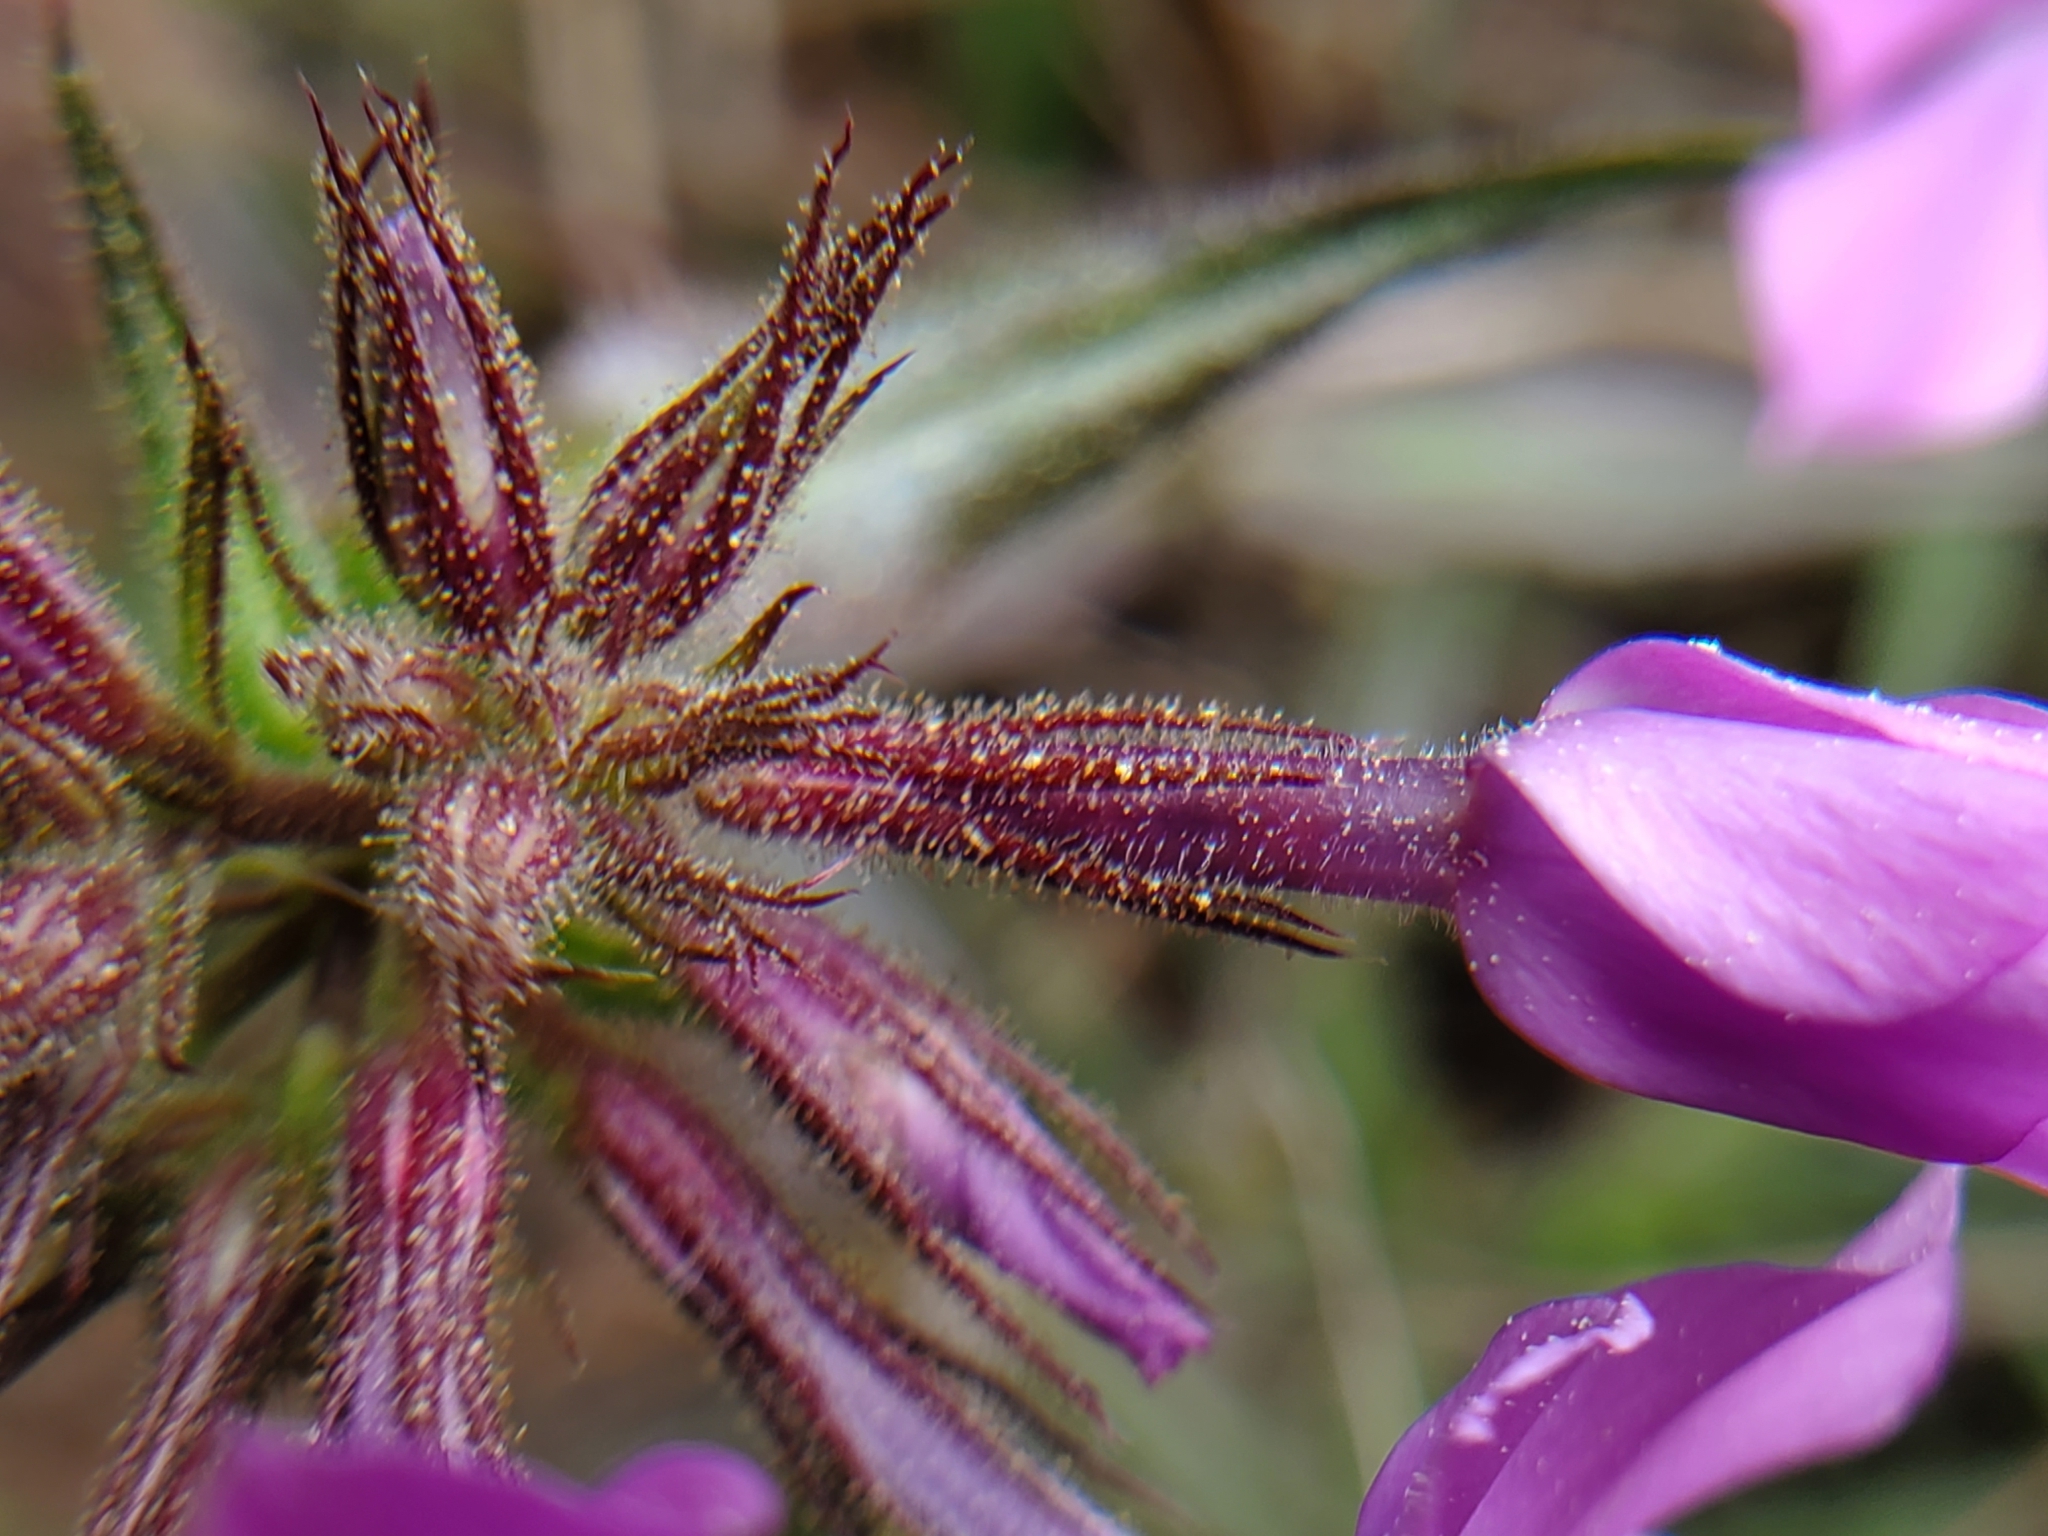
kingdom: Plantae
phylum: Tracheophyta
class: Magnoliopsida
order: Ericales
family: Polemoniaceae
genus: Phlox
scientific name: Phlox pilosa
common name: Prairie phlox
